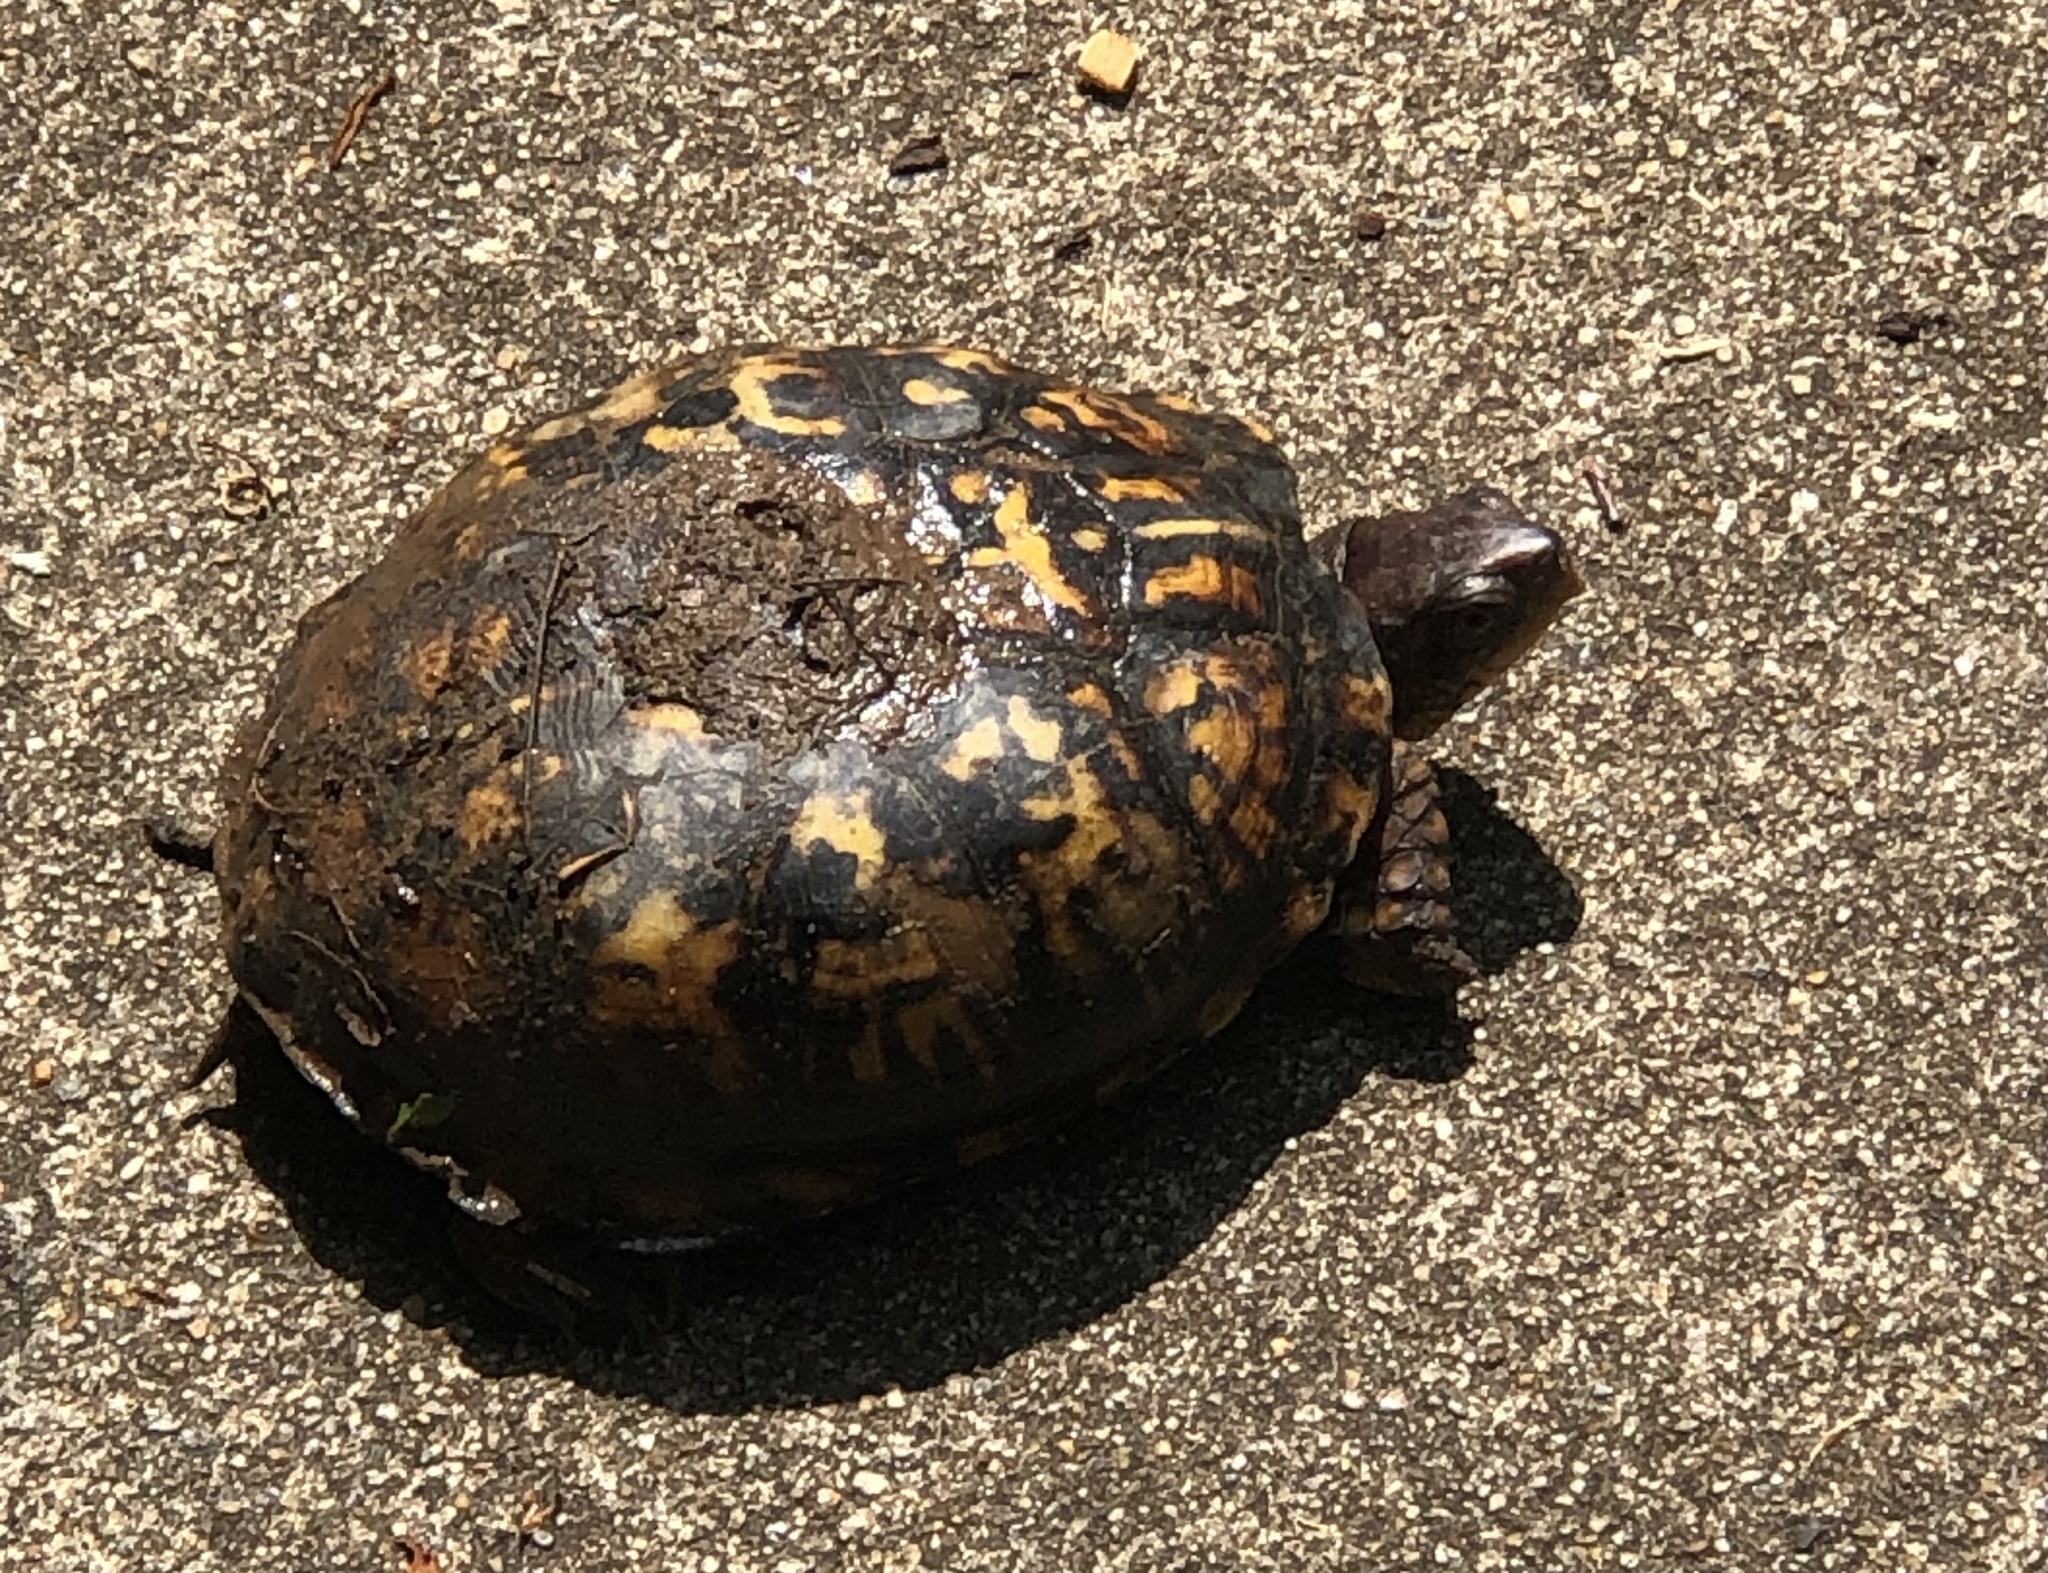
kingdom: Animalia
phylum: Chordata
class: Testudines
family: Emydidae
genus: Terrapene
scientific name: Terrapene carolina
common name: Common box turtle
